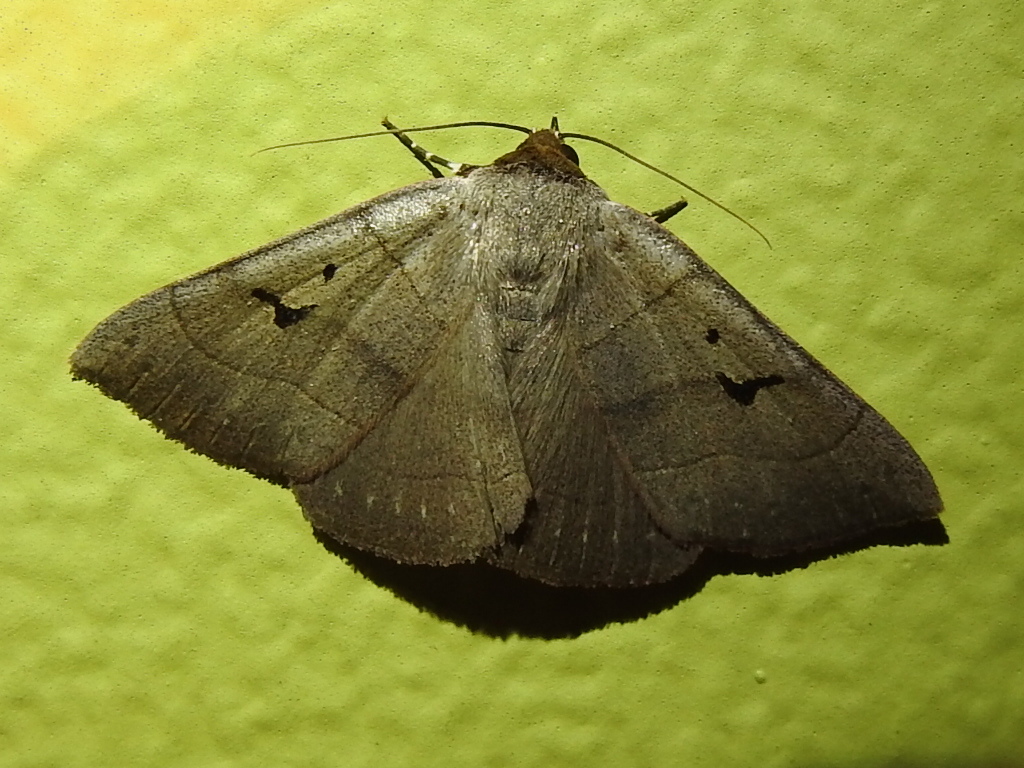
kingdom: Animalia
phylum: Arthropoda
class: Insecta
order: Lepidoptera
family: Erebidae
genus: Panopoda
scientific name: Panopoda carneicosta
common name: Brown panopoda moth
